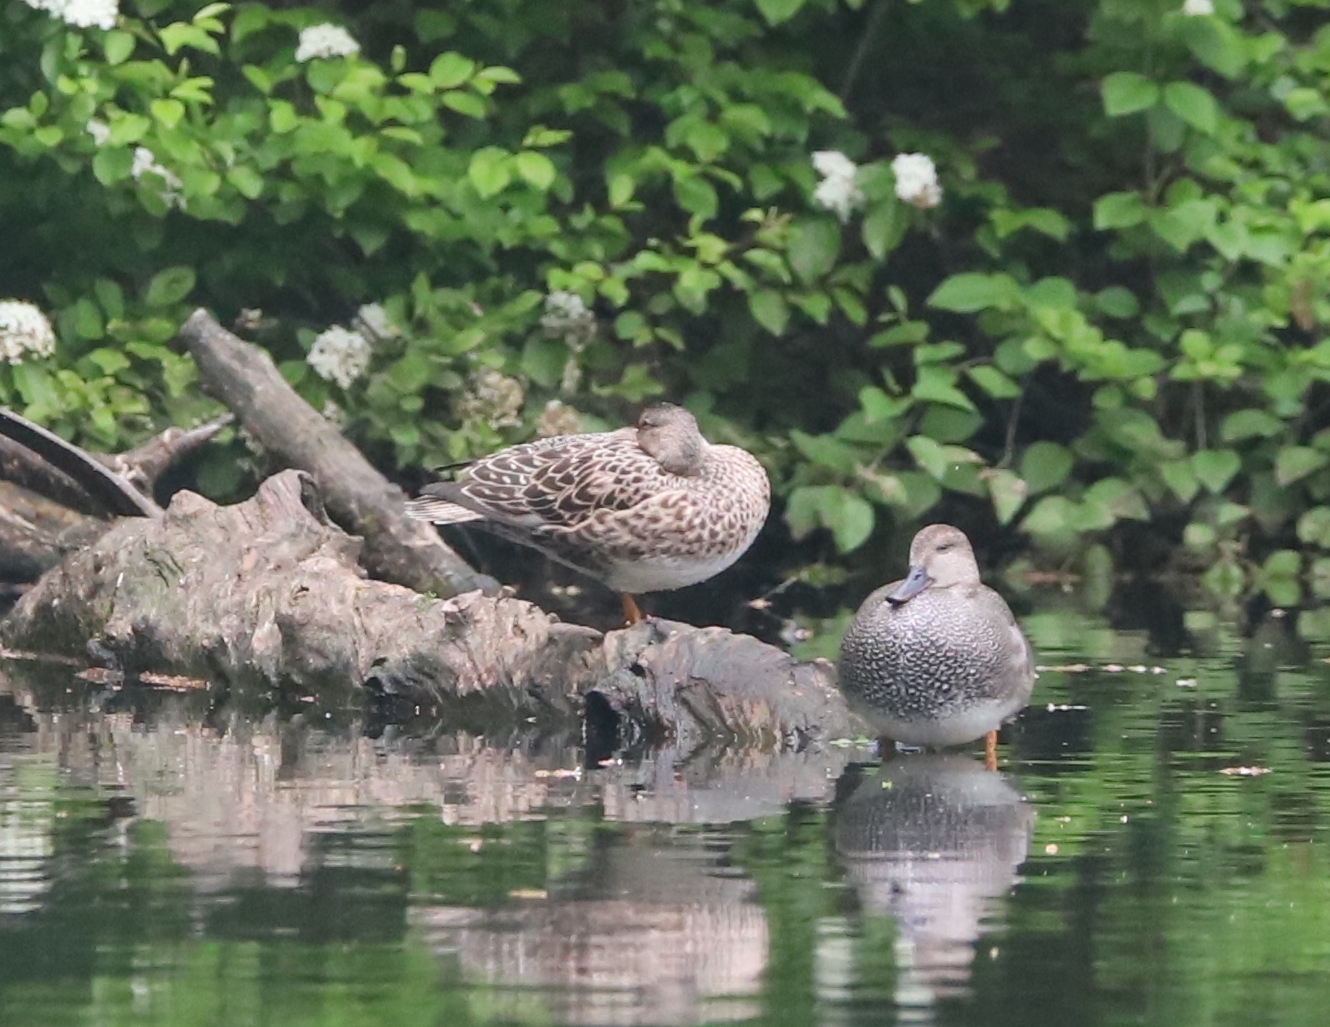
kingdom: Animalia
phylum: Chordata
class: Aves
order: Anseriformes
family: Anatidae
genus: Mareca
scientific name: Mareca strepera
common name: Gadwall
